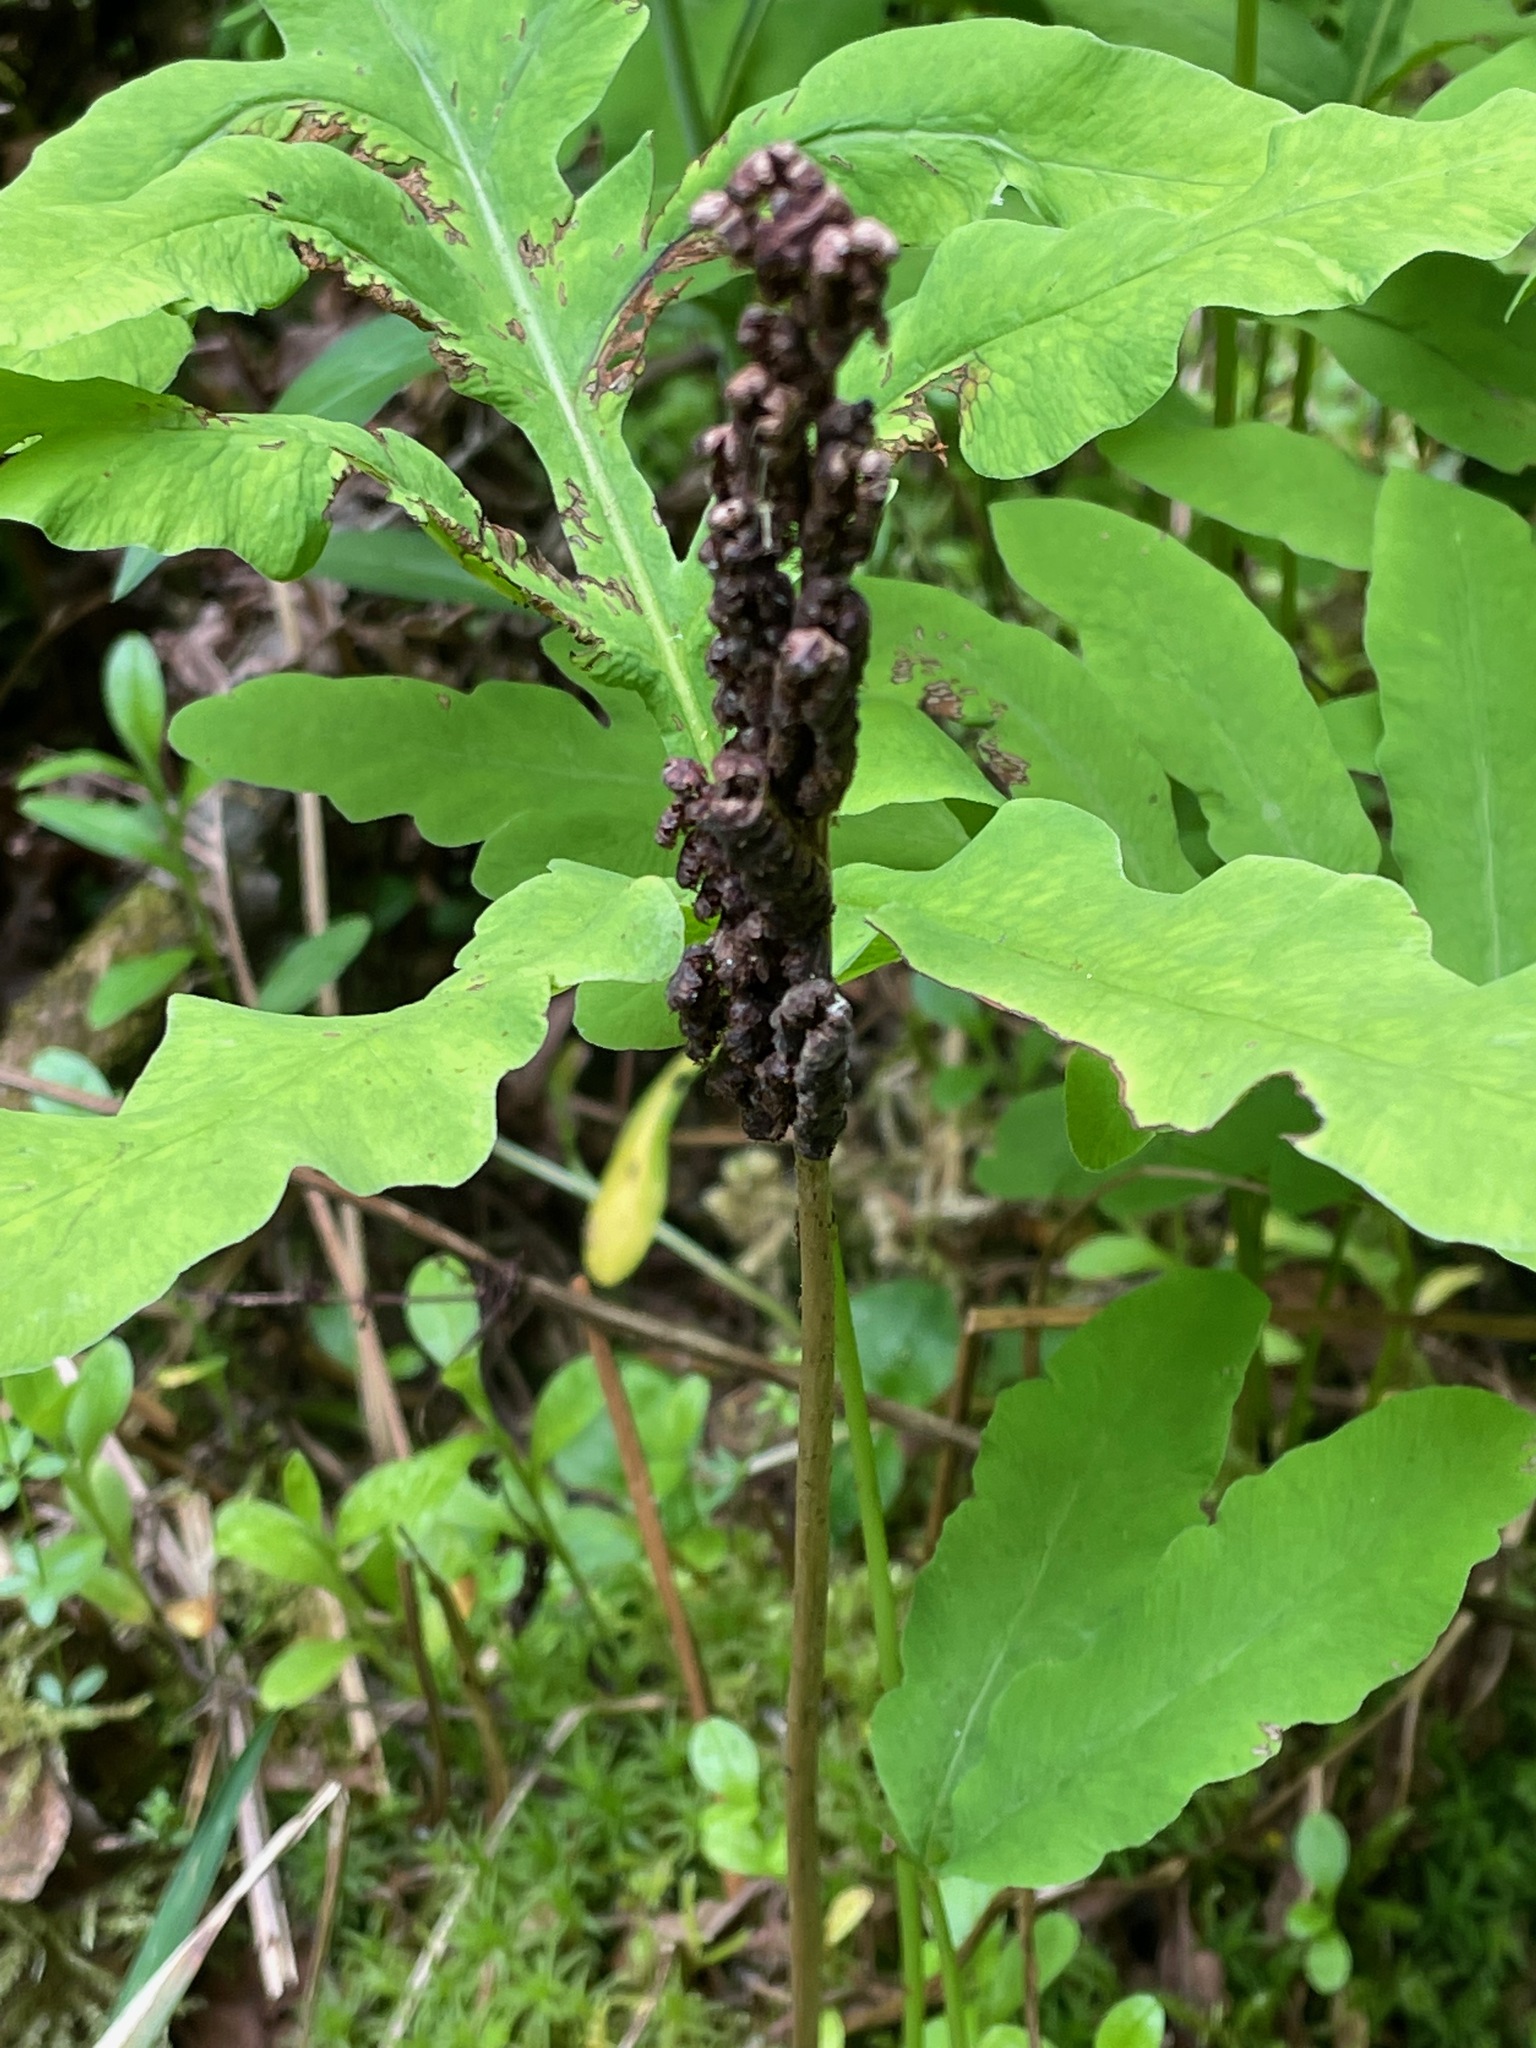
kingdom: Plantae
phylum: Tracheophyta
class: Polypodiopsida
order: Polypodiales
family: Onocleaceae
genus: Onoclea
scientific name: Onoclea sensibilis
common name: Sensitive fern
